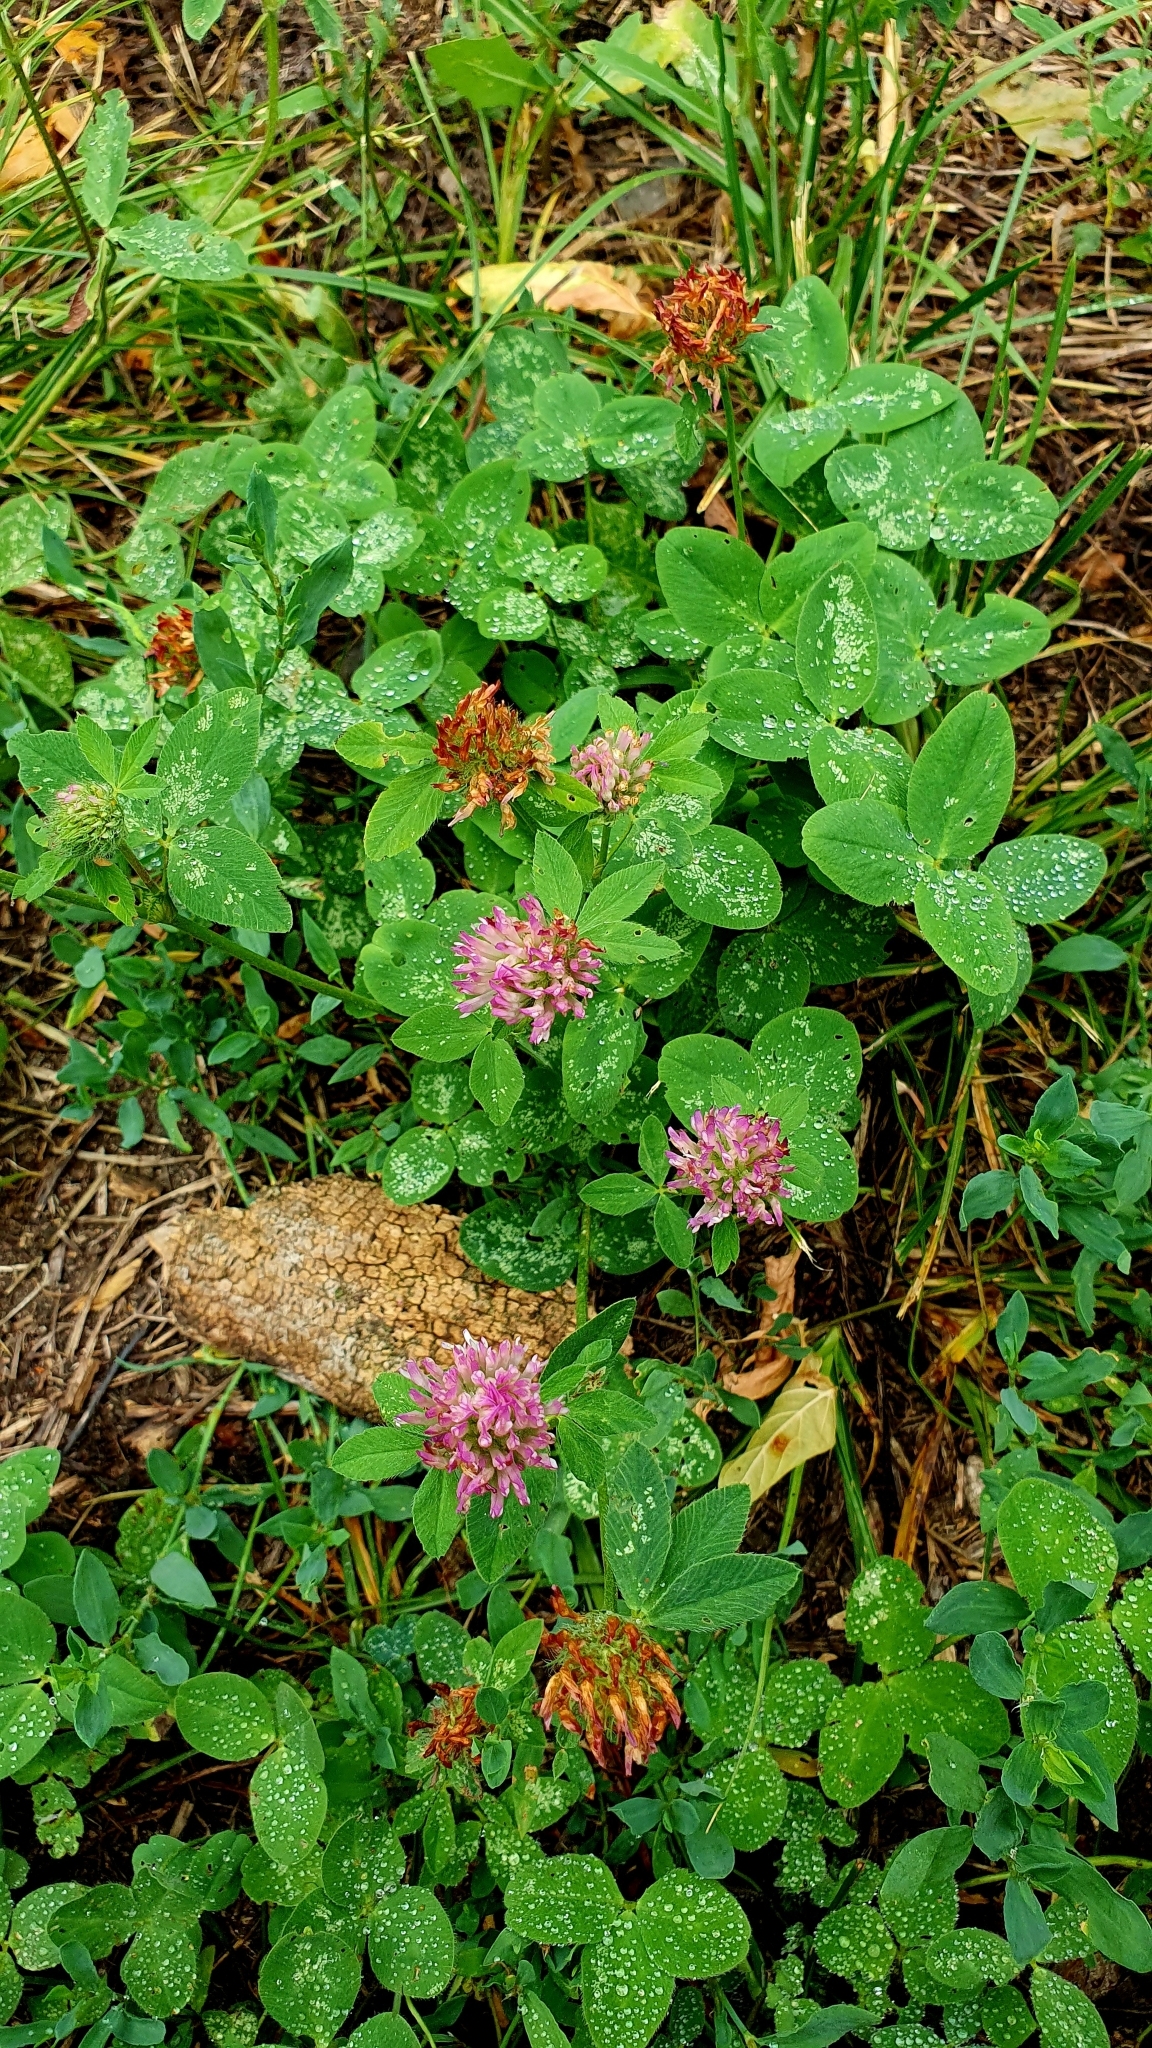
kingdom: Plantae
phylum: Tracheophyta
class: Magnoliopsida
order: Fabales
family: Fabaceae
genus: Trifolium
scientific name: Trifolium pratense
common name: Red clover
